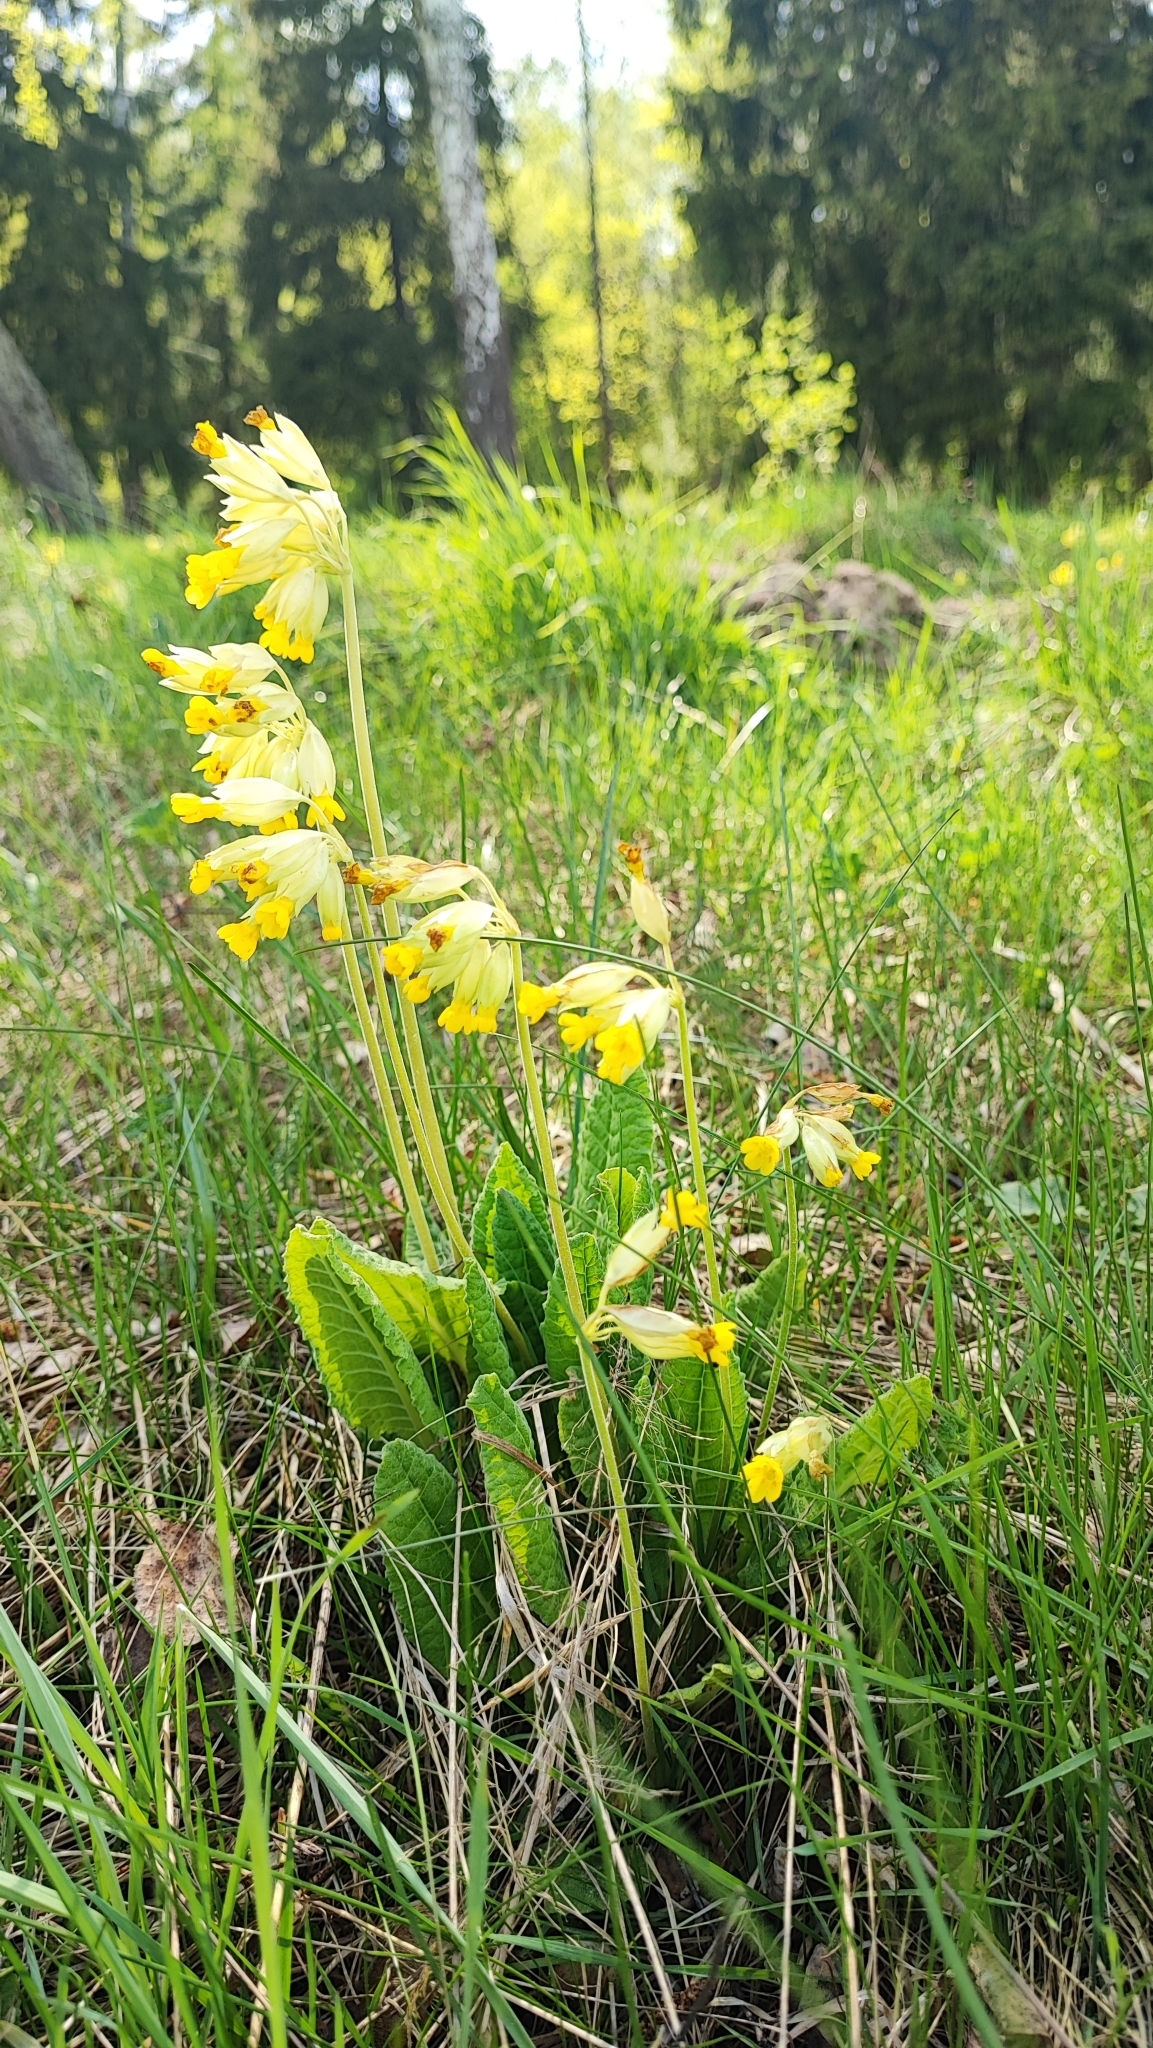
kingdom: Plantae
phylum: Tracheophyta
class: Magnoliopsida
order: Ericales
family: Primulaceae
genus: Primula
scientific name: Primula veris
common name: Cowslip
